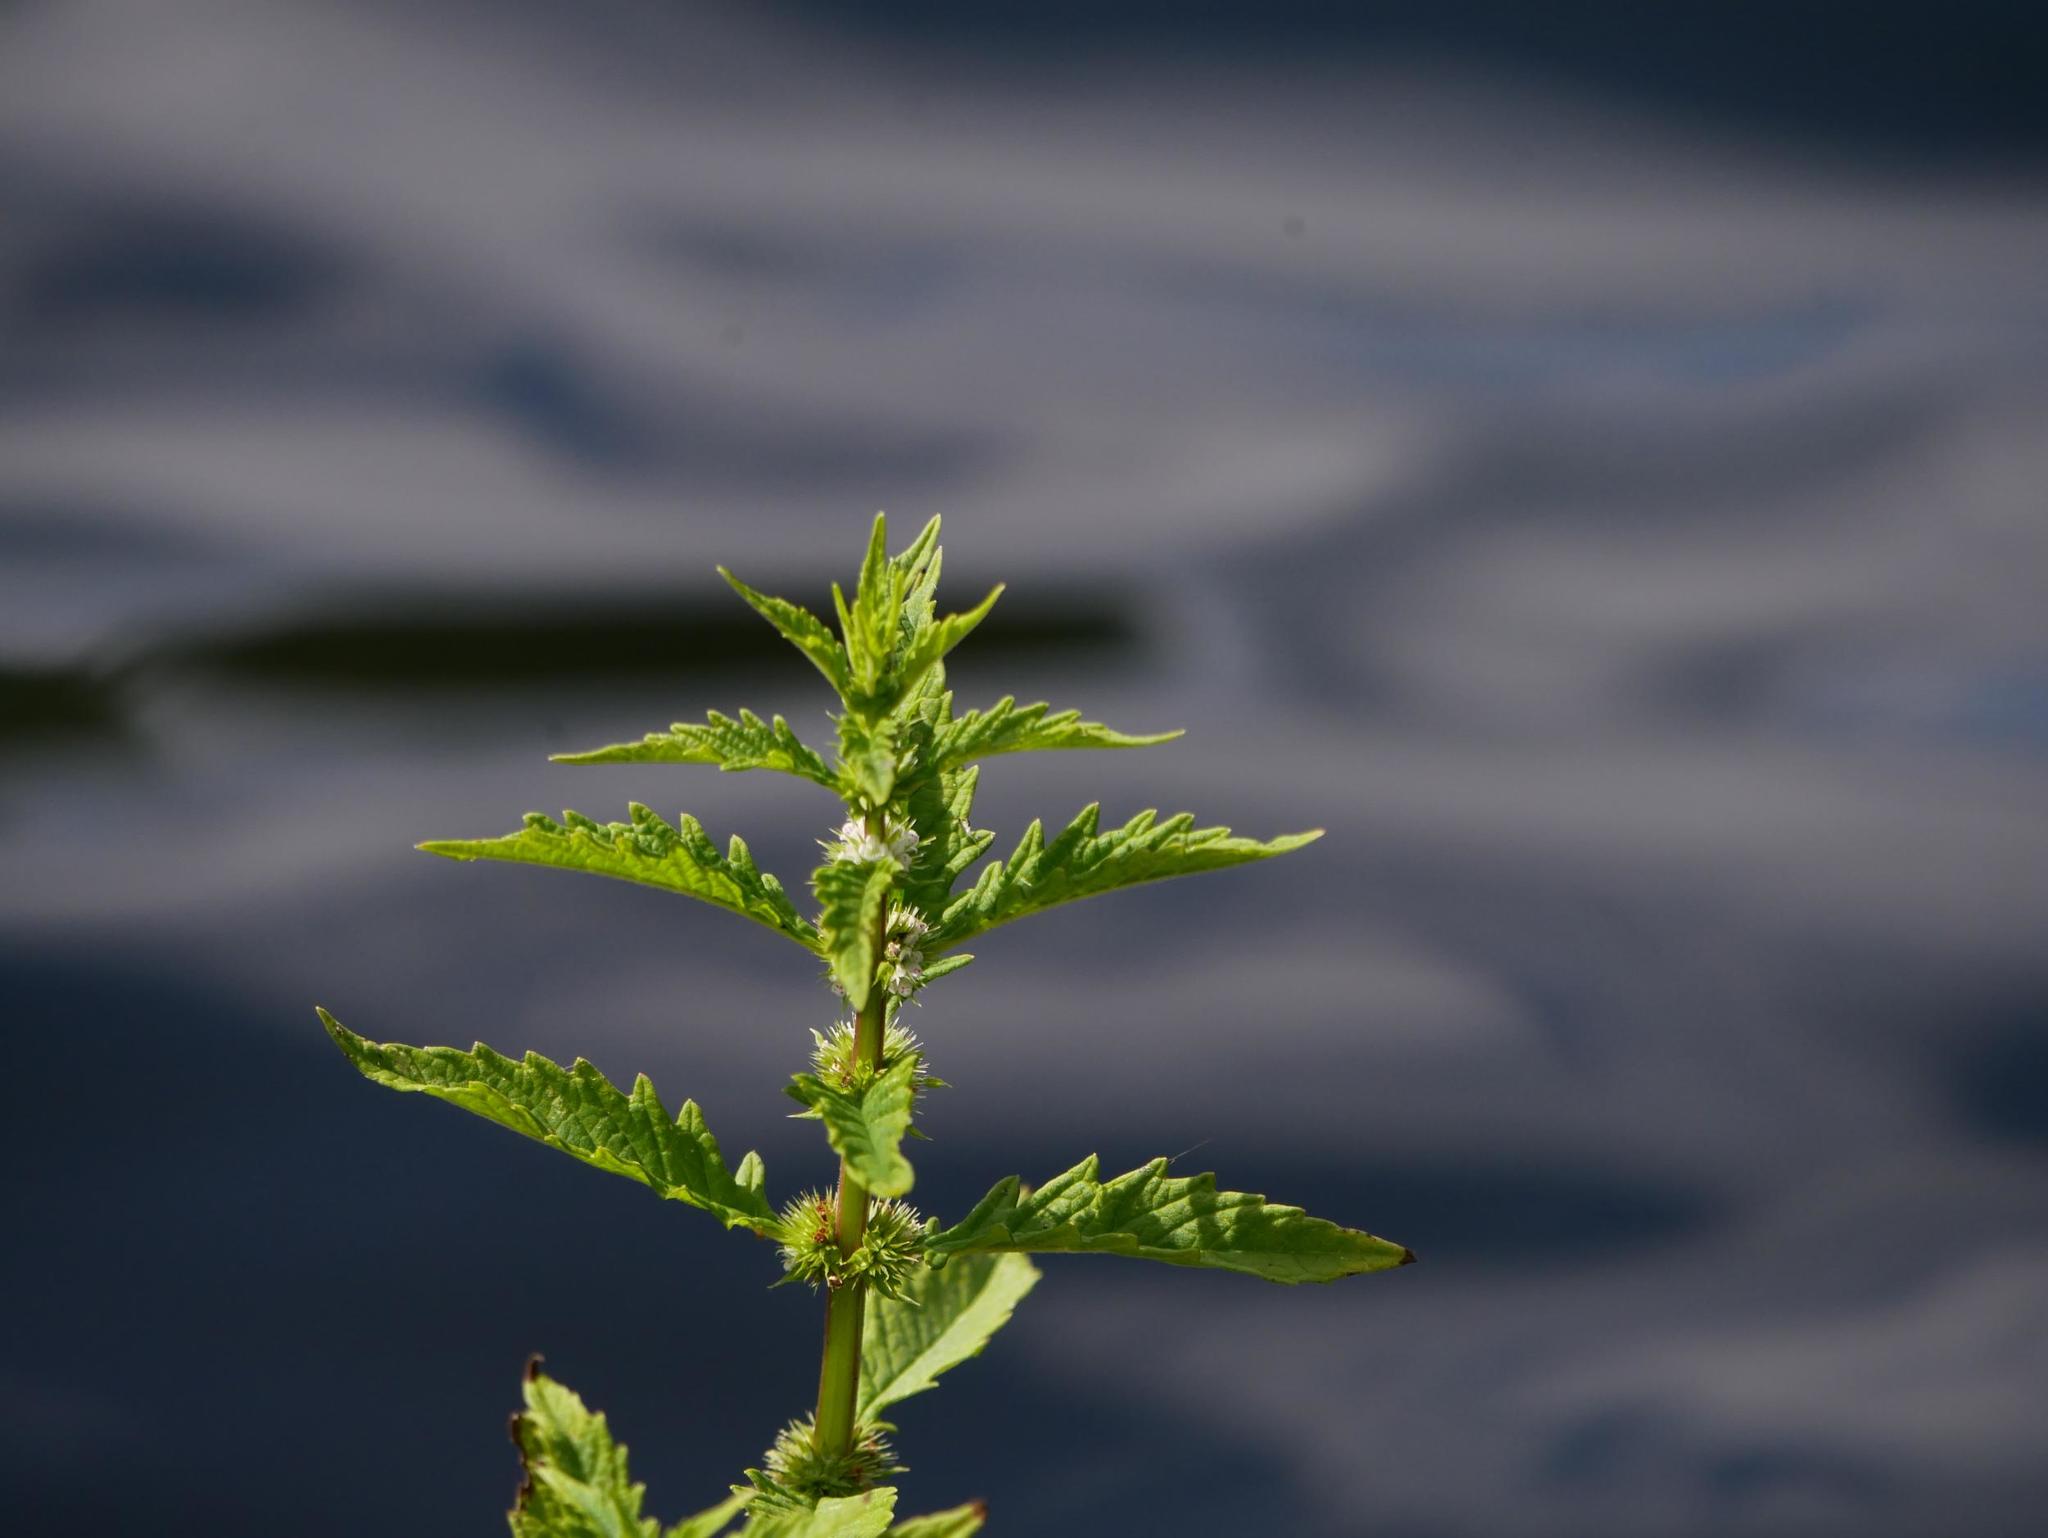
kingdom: Plantae
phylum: Tracheophyta
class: Magnoliopsida
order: Lamiales
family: Lamiaceae
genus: Lycopus
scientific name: Lycopus europaeus
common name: European bugleweed
